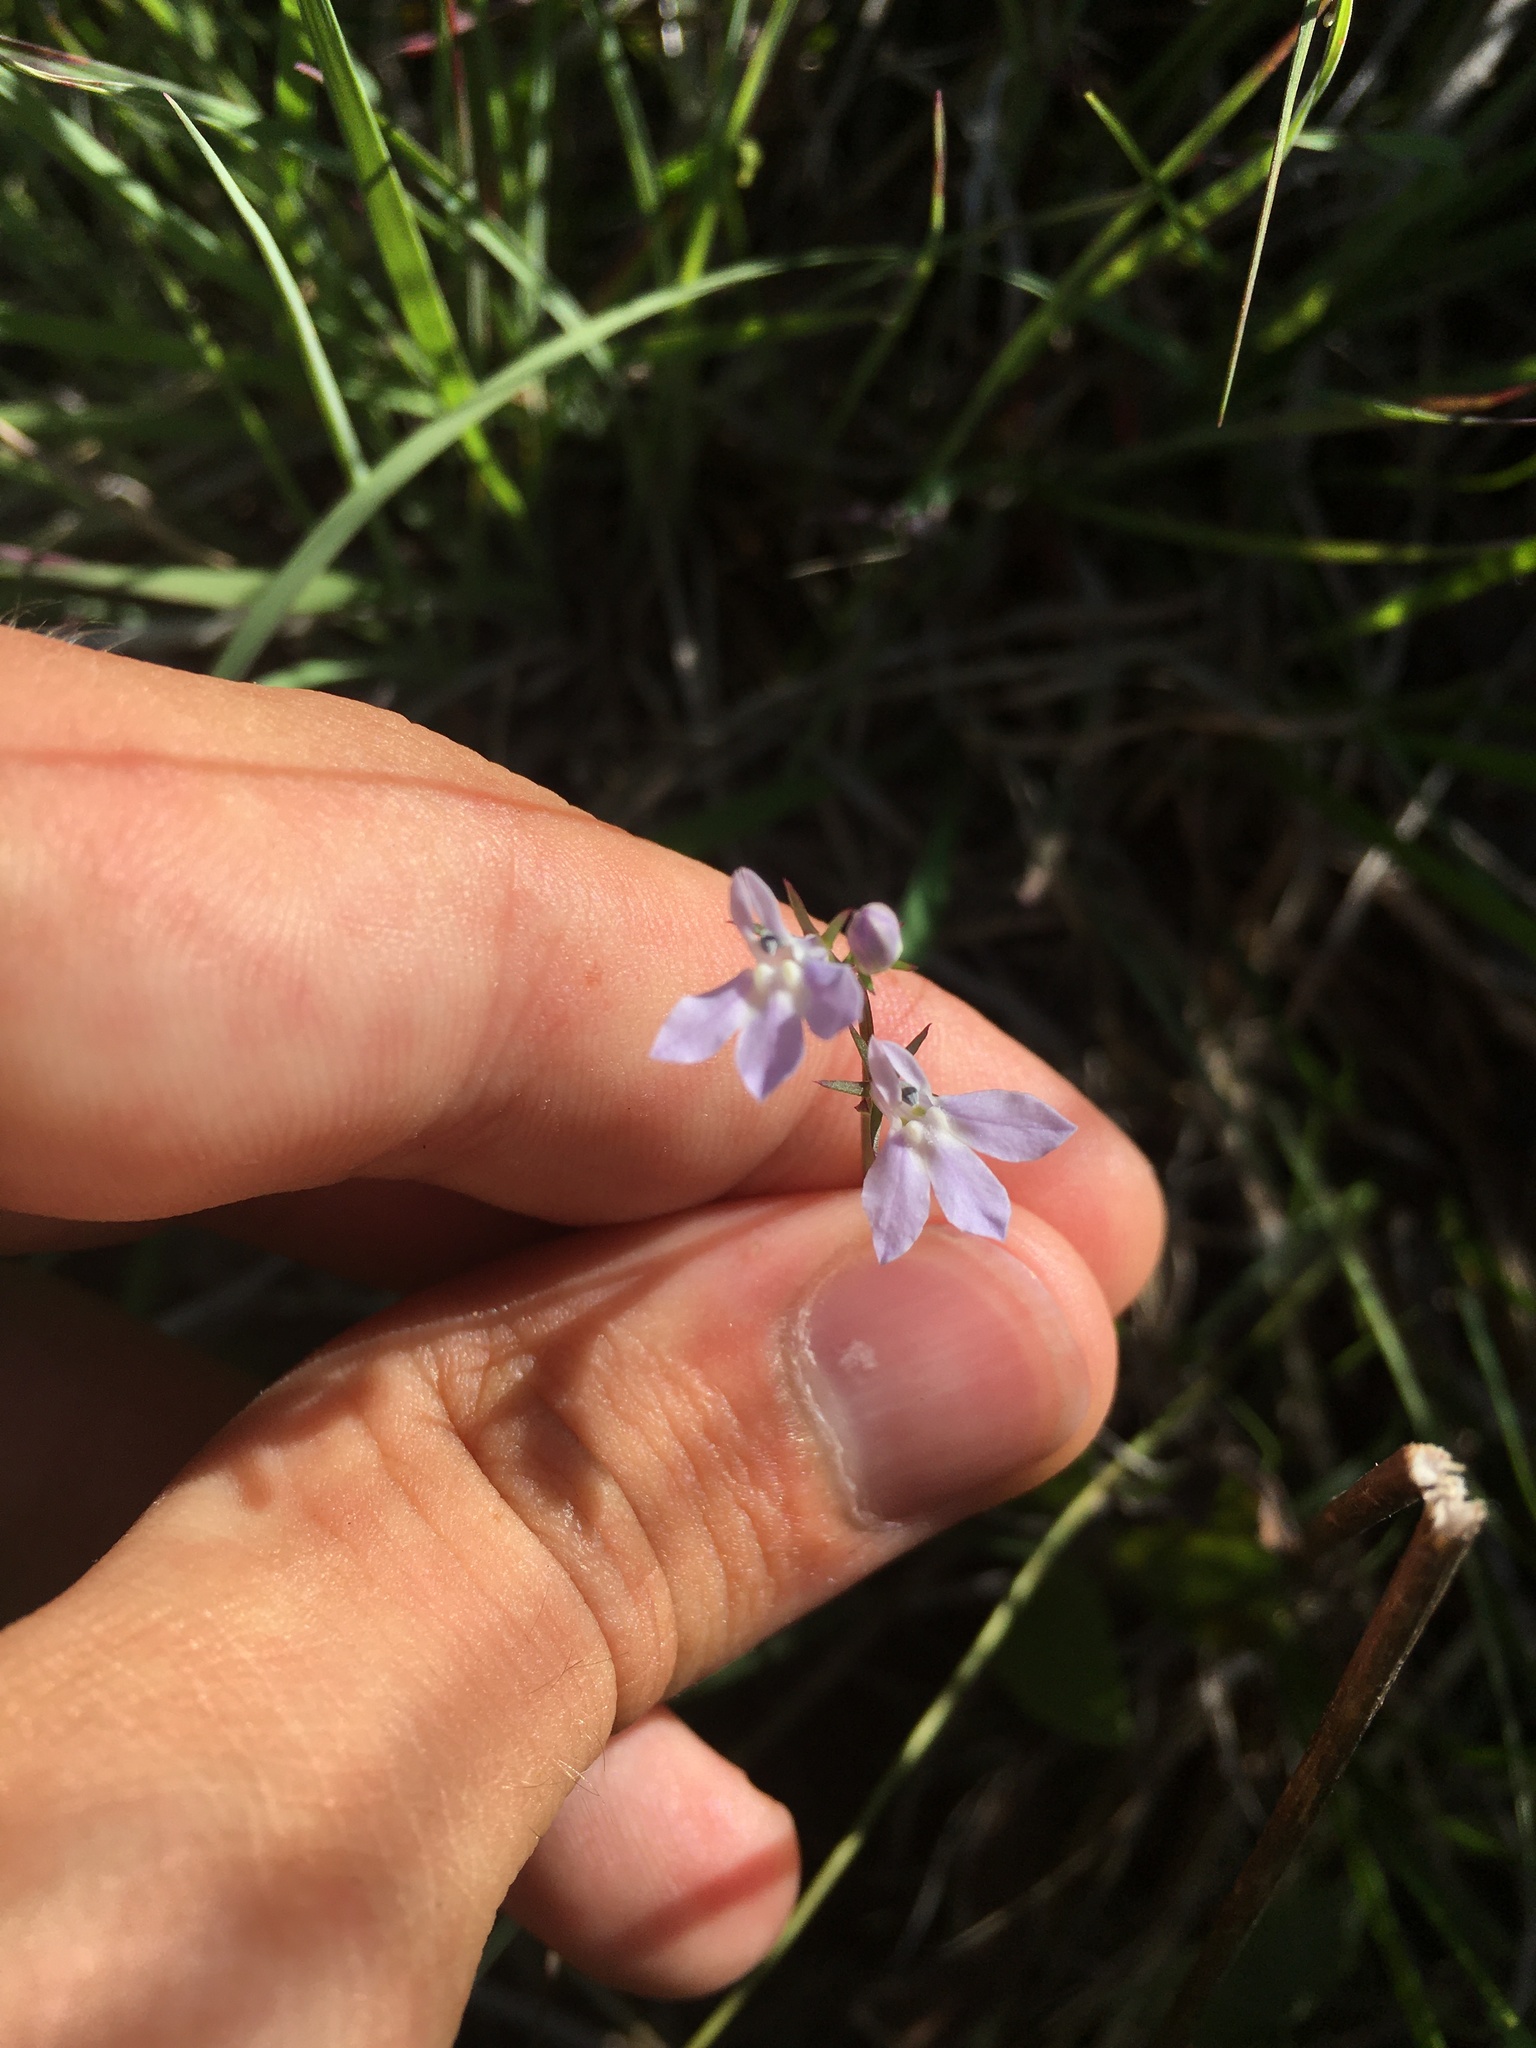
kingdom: Plantae
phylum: Tracheophyta
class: Magnoliopsida
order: Asterales
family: Campanulaceae
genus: Lobelia
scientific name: Lobelia spicata
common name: Pale-spike lobelia
